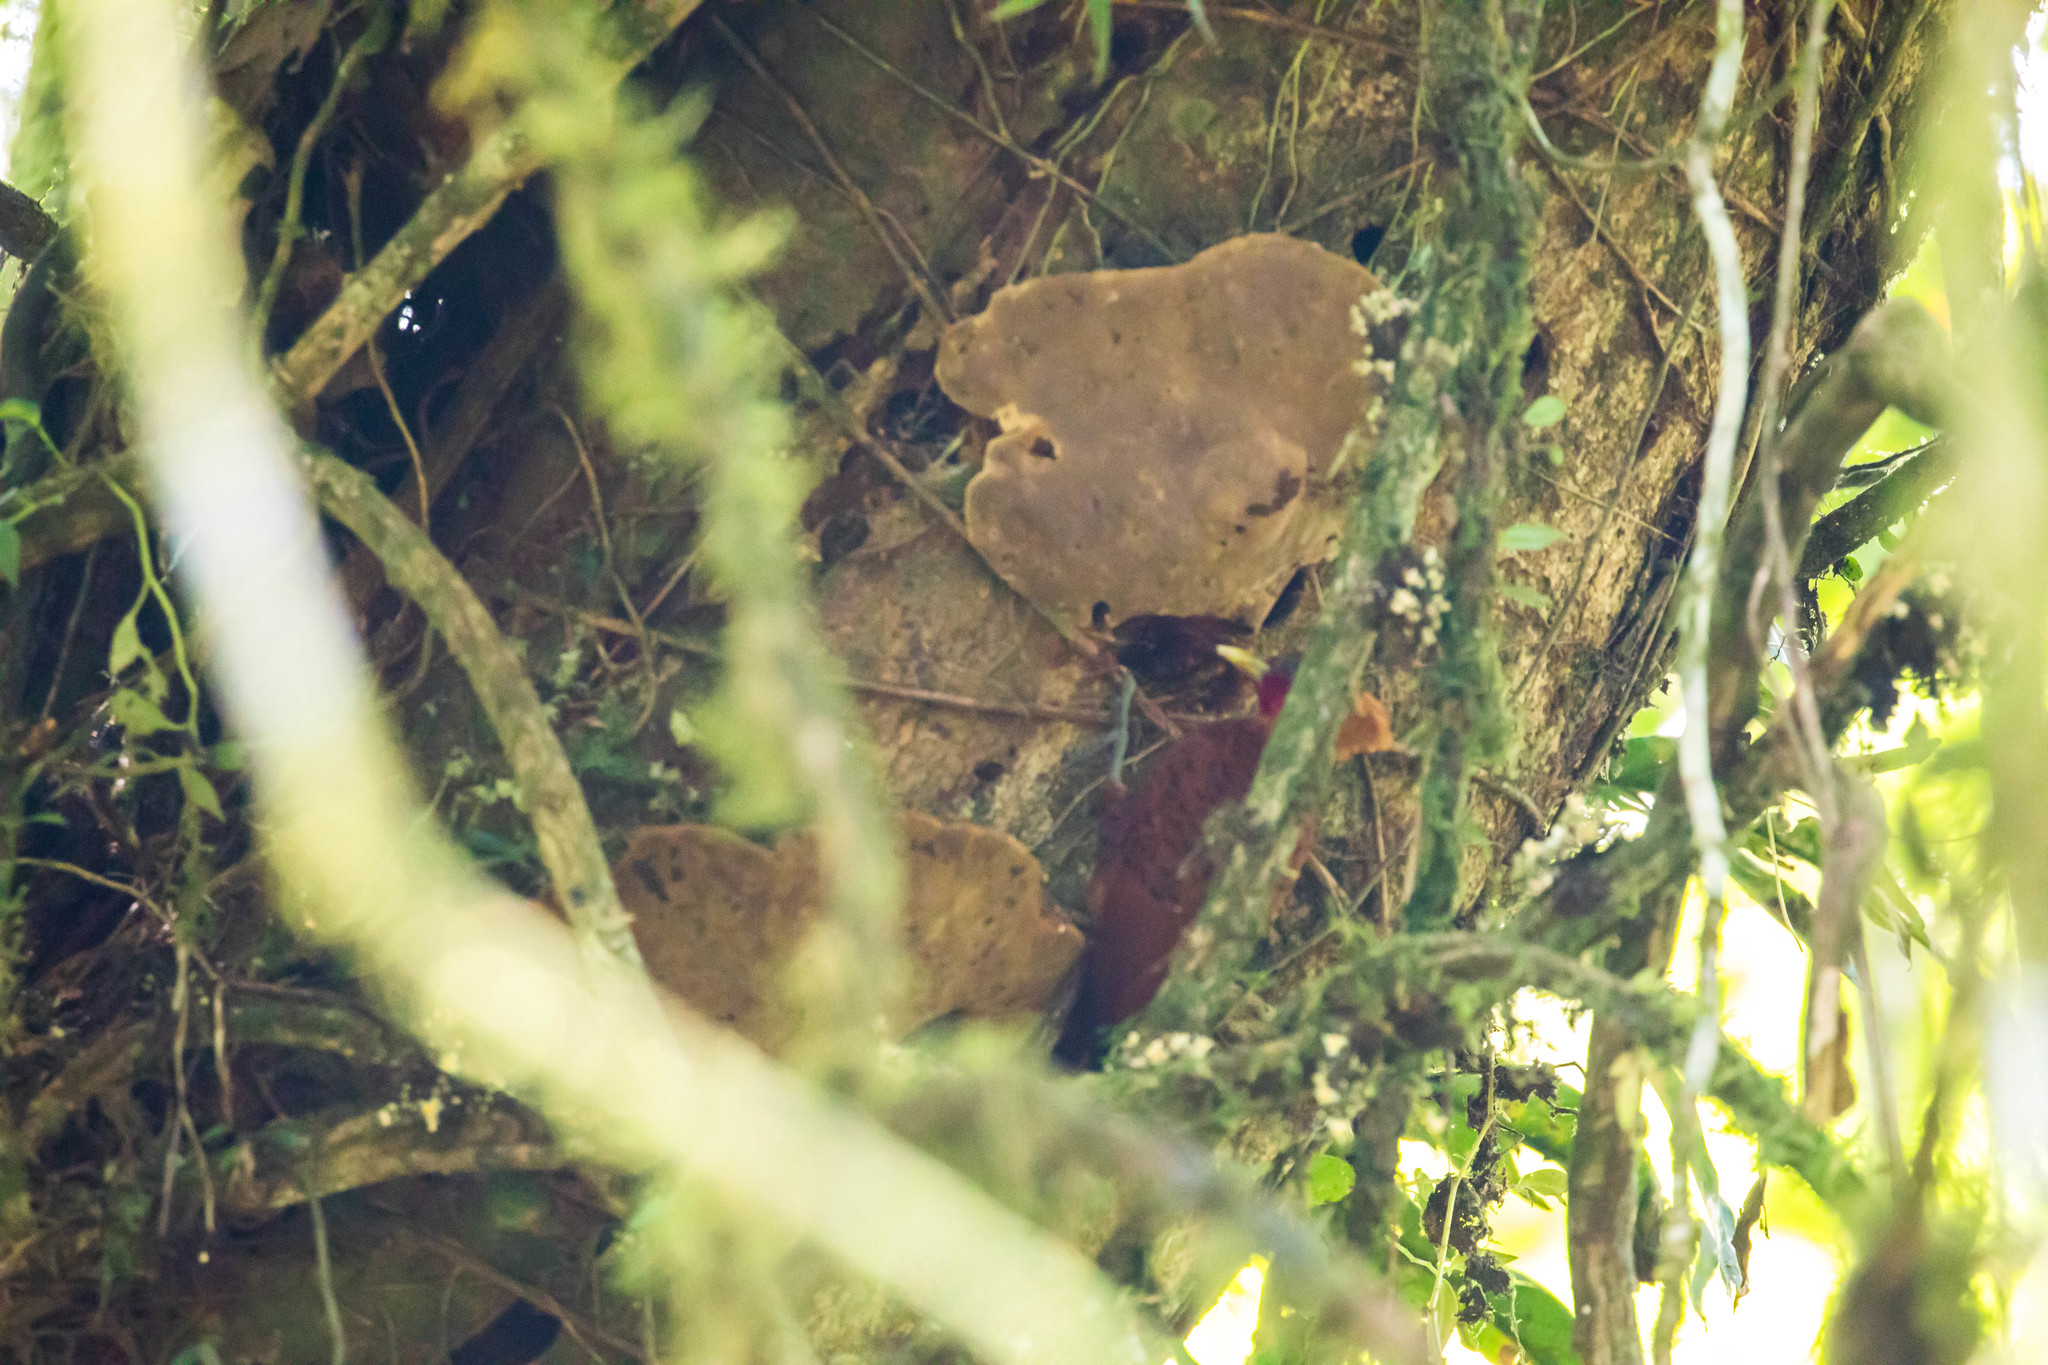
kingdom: Animalia
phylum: Chordata
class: Aves
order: Piciformes
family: Picidae
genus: Celeus
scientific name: Celeus castaneus
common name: Chestnut-colored woodpecker
